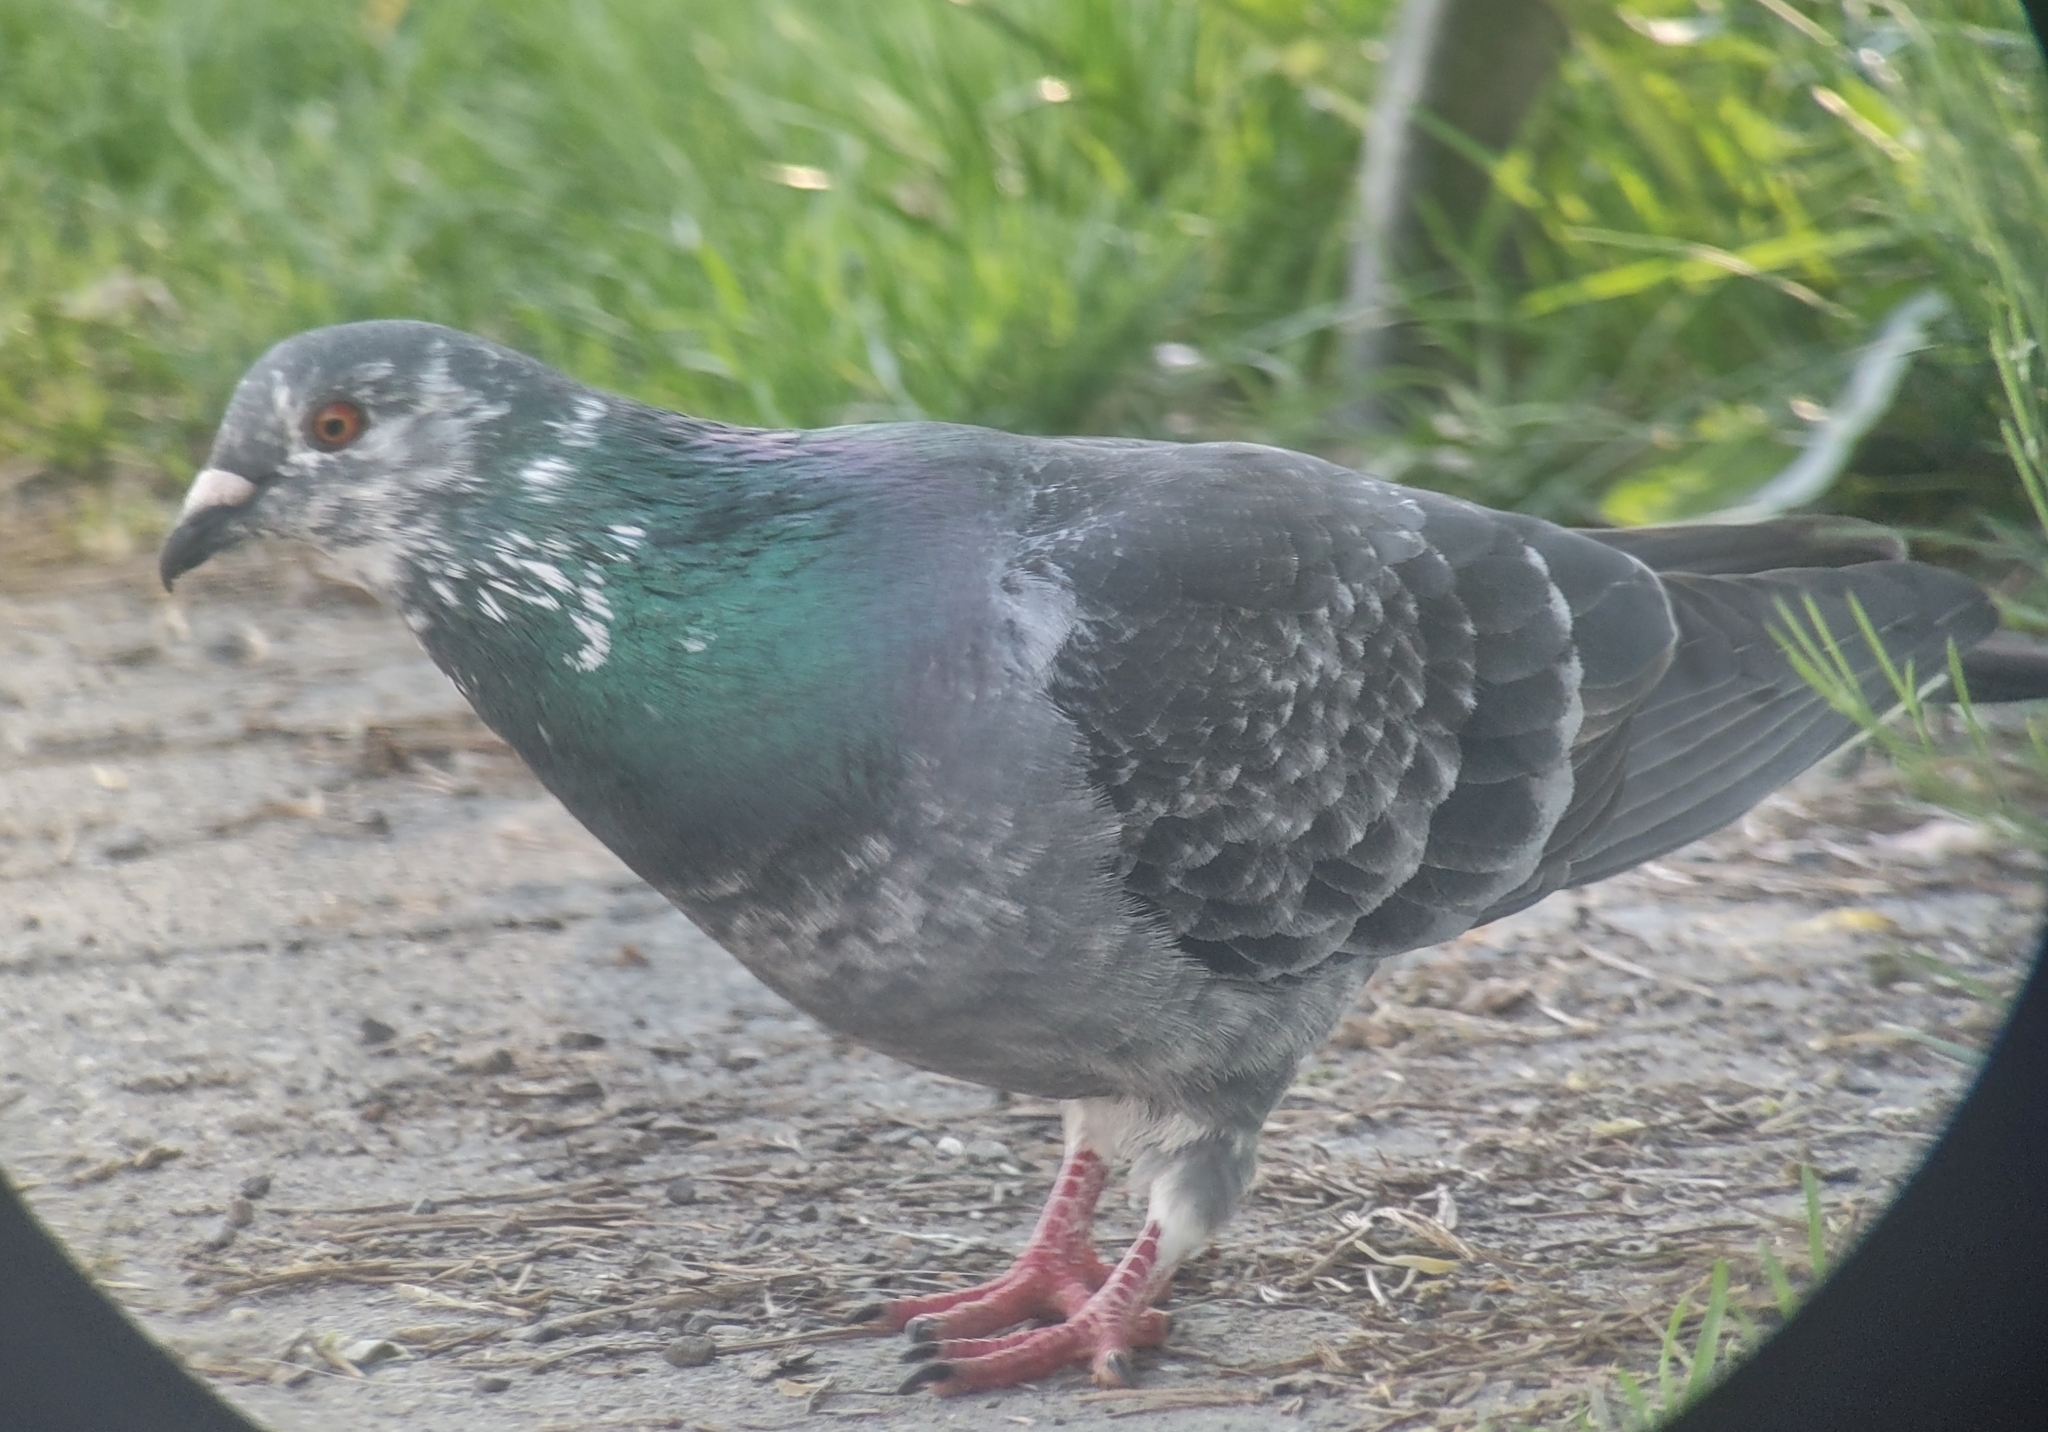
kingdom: Animalia
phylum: Chordata
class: Aves
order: Columbiformes
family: Columbidae
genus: Columba
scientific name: Columba livia
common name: Rock pigeon
